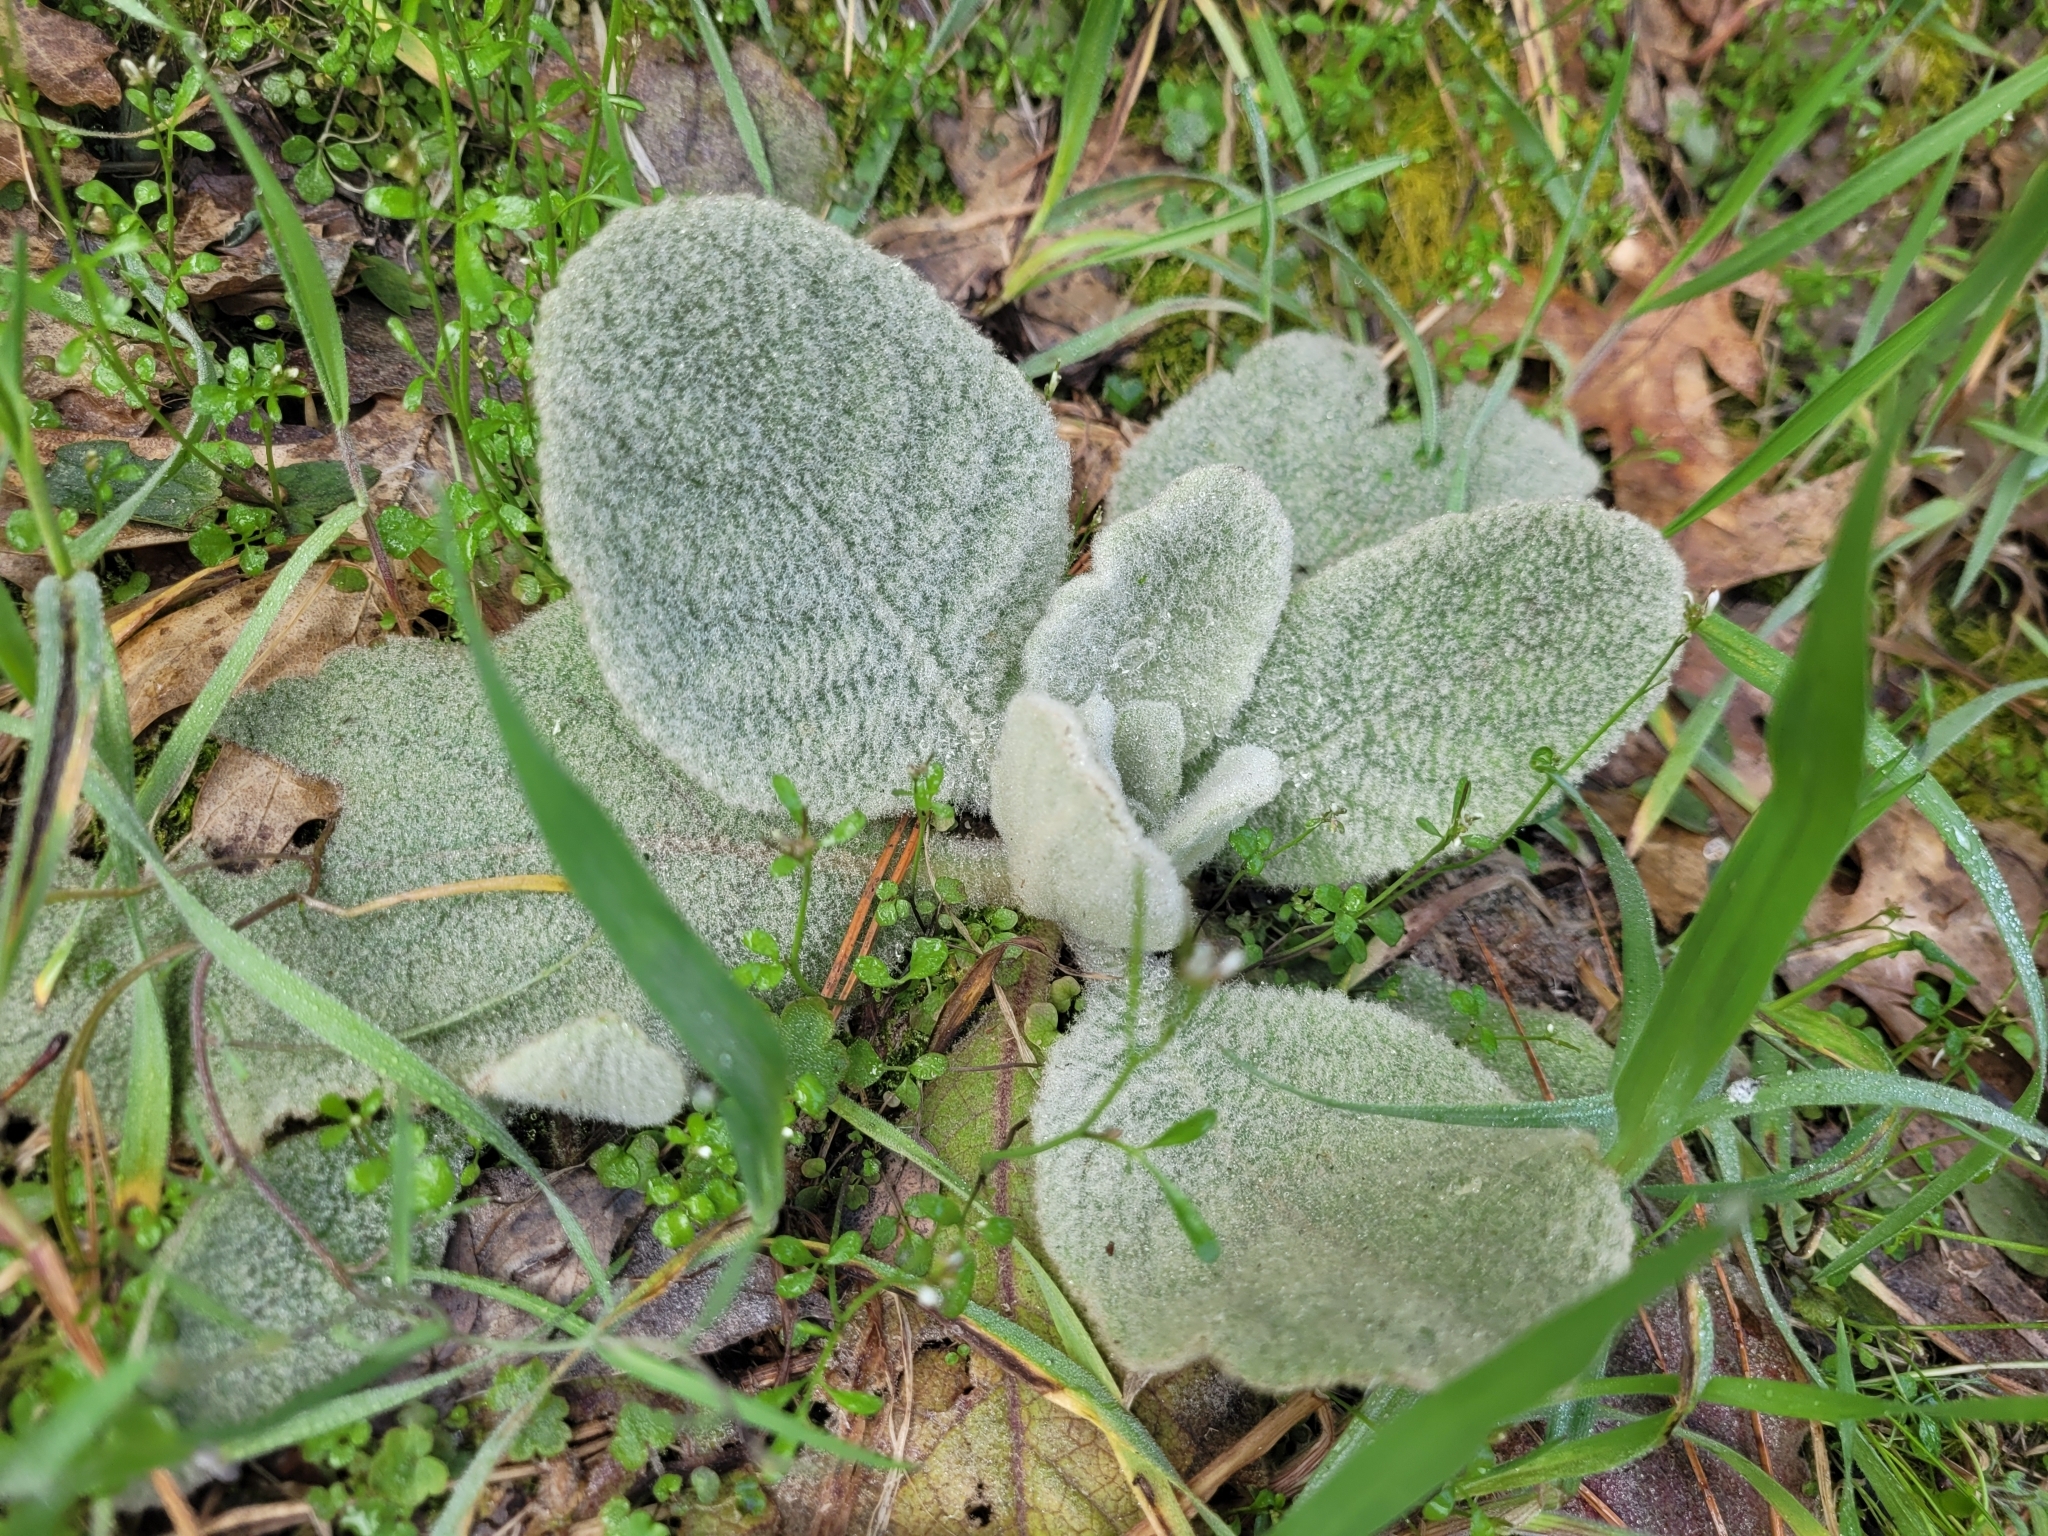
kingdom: Plantae
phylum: Tracheophyta
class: Magnoliopsida
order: Lamiales
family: Scrophulariaceae
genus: Verbascum
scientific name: Verbascum thapsus
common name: Common mullein
